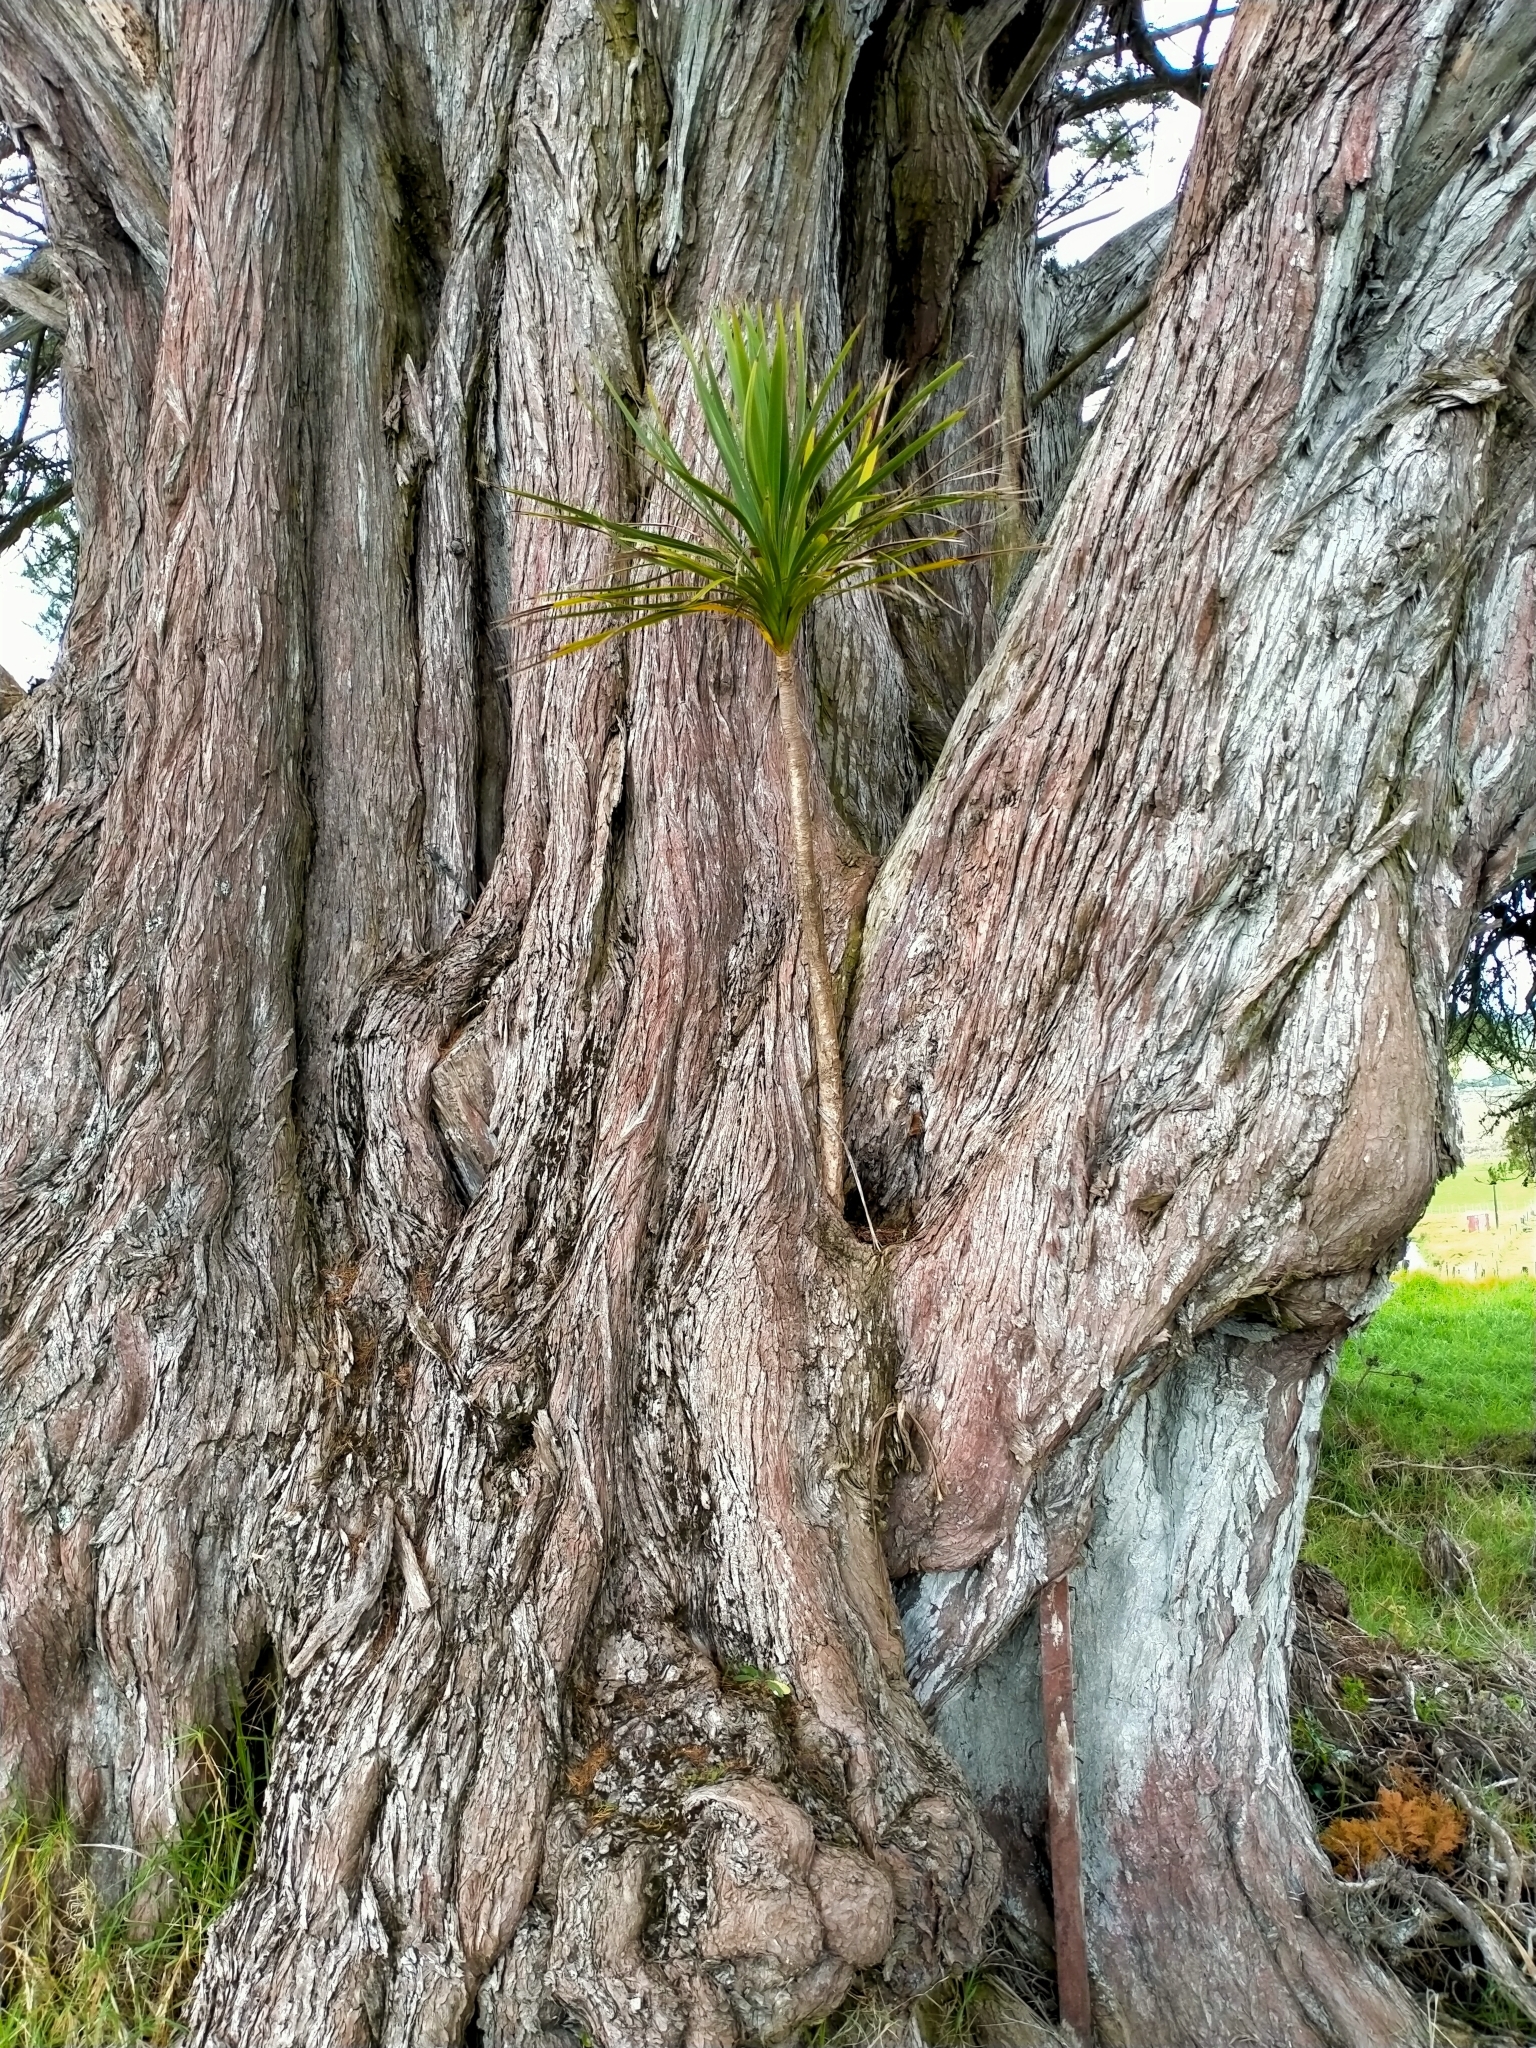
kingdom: Plantae
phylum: Tracheophyta
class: Liliopsida
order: Asparagales
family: Asparagaceae
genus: Cordyline
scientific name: Cordyline australis
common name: Cabbage-palm
